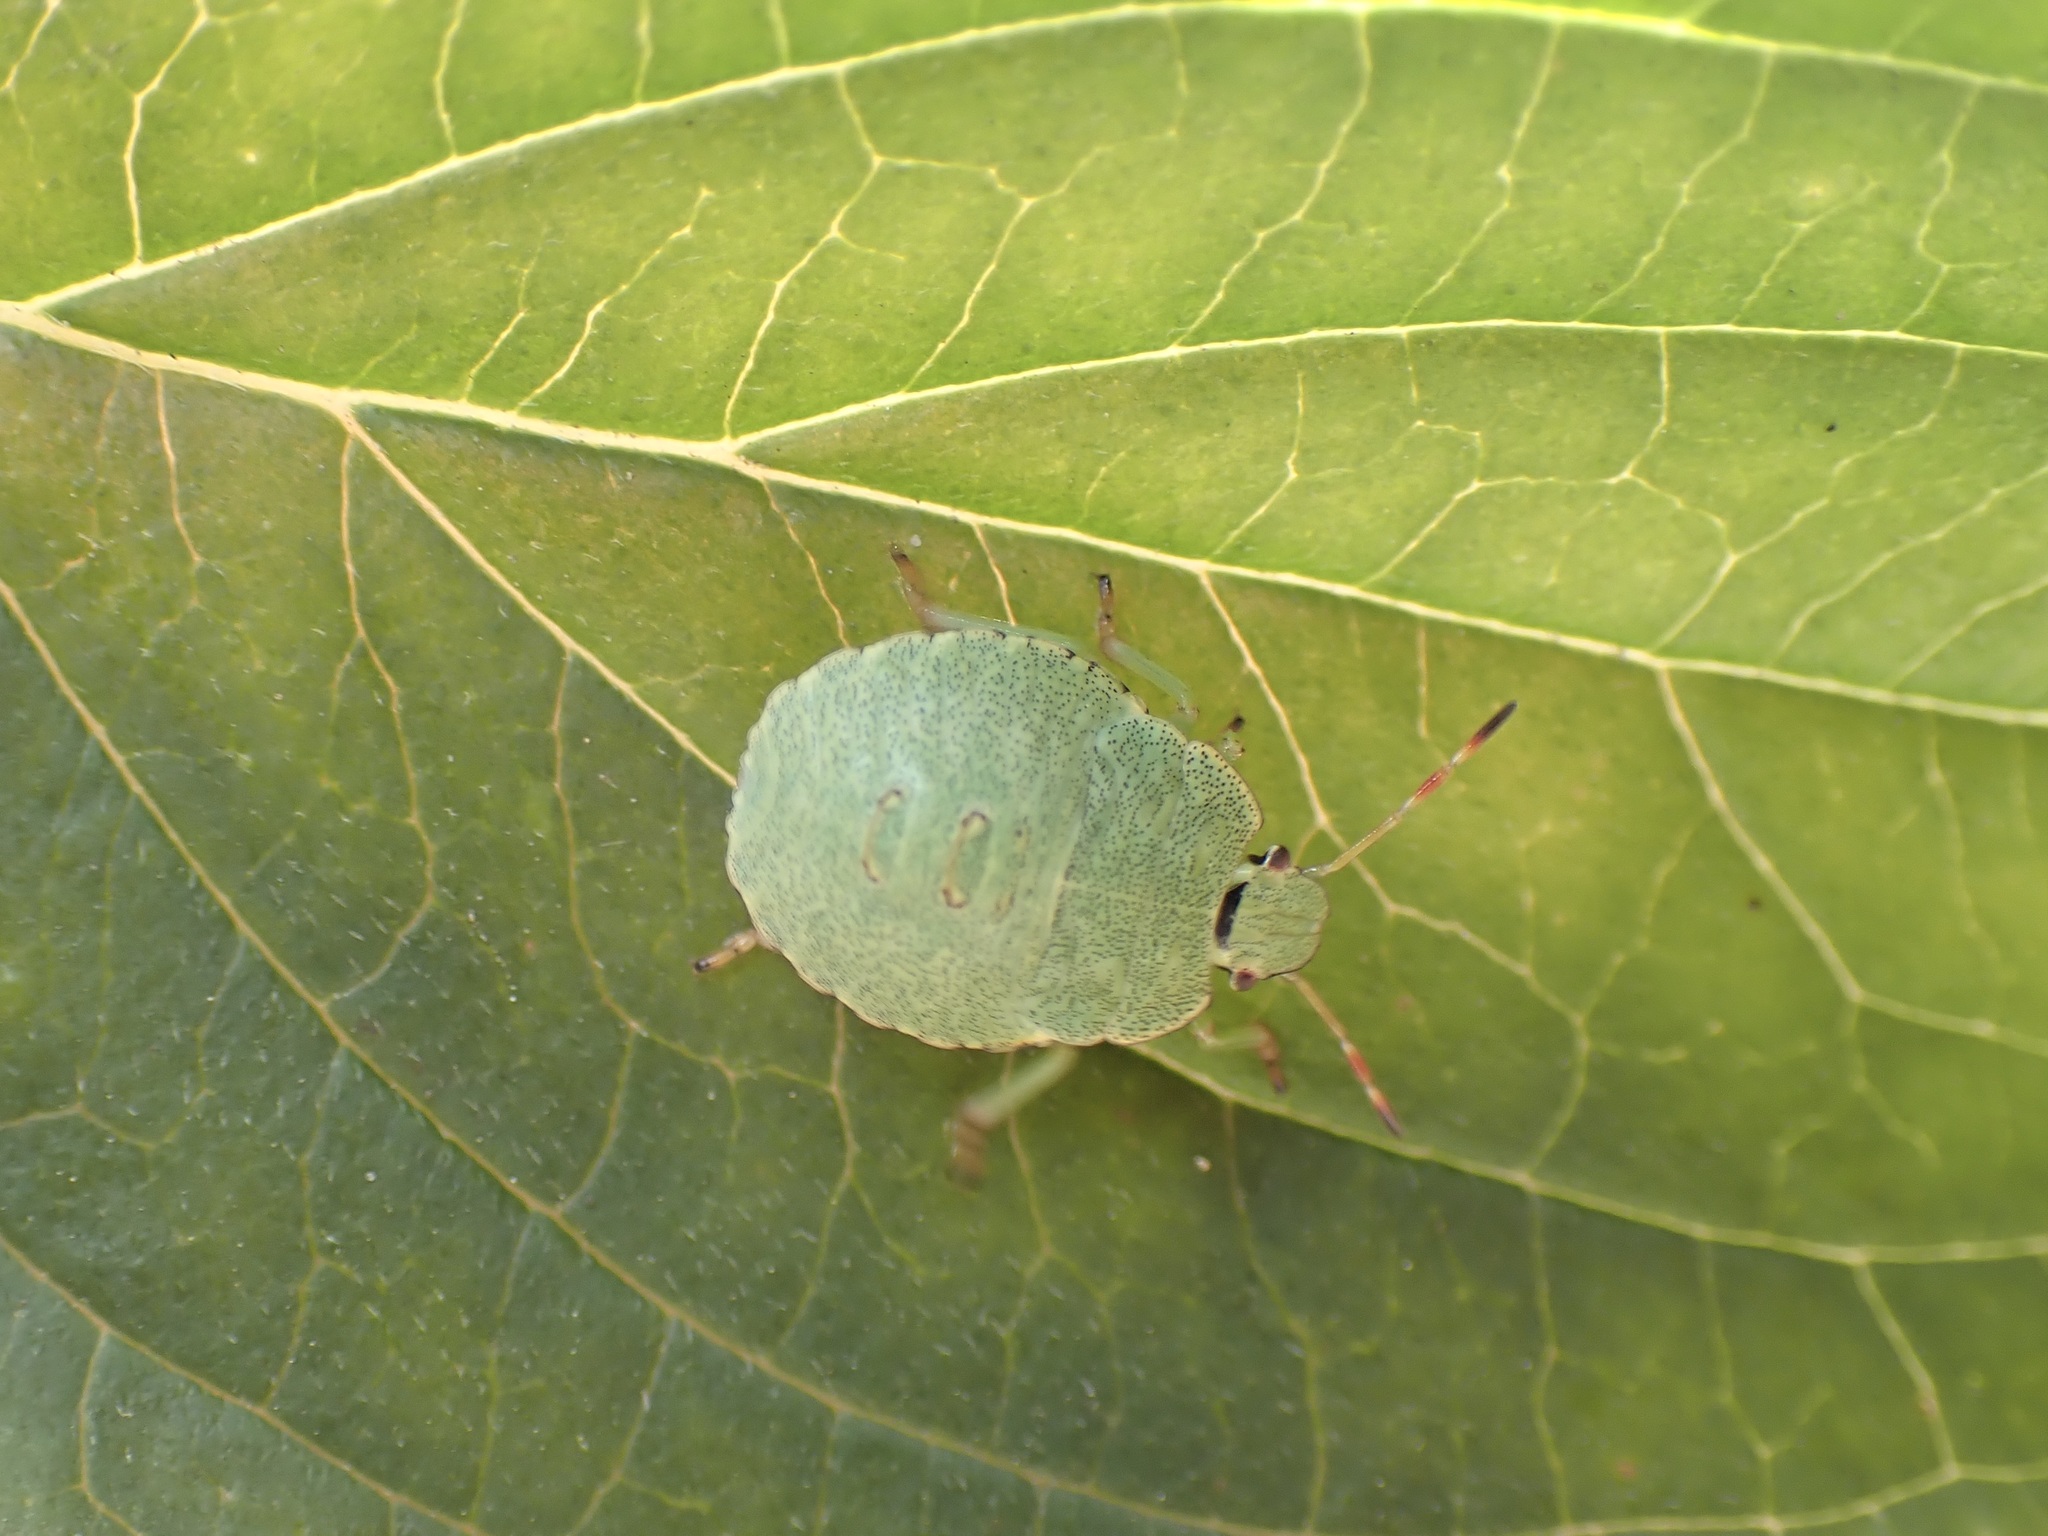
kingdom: Animalia
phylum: Arthropoda
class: Insecta
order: Hemiptera
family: Pentatomidae
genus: Palomena
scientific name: Palomena prasina
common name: Green shieldbug
